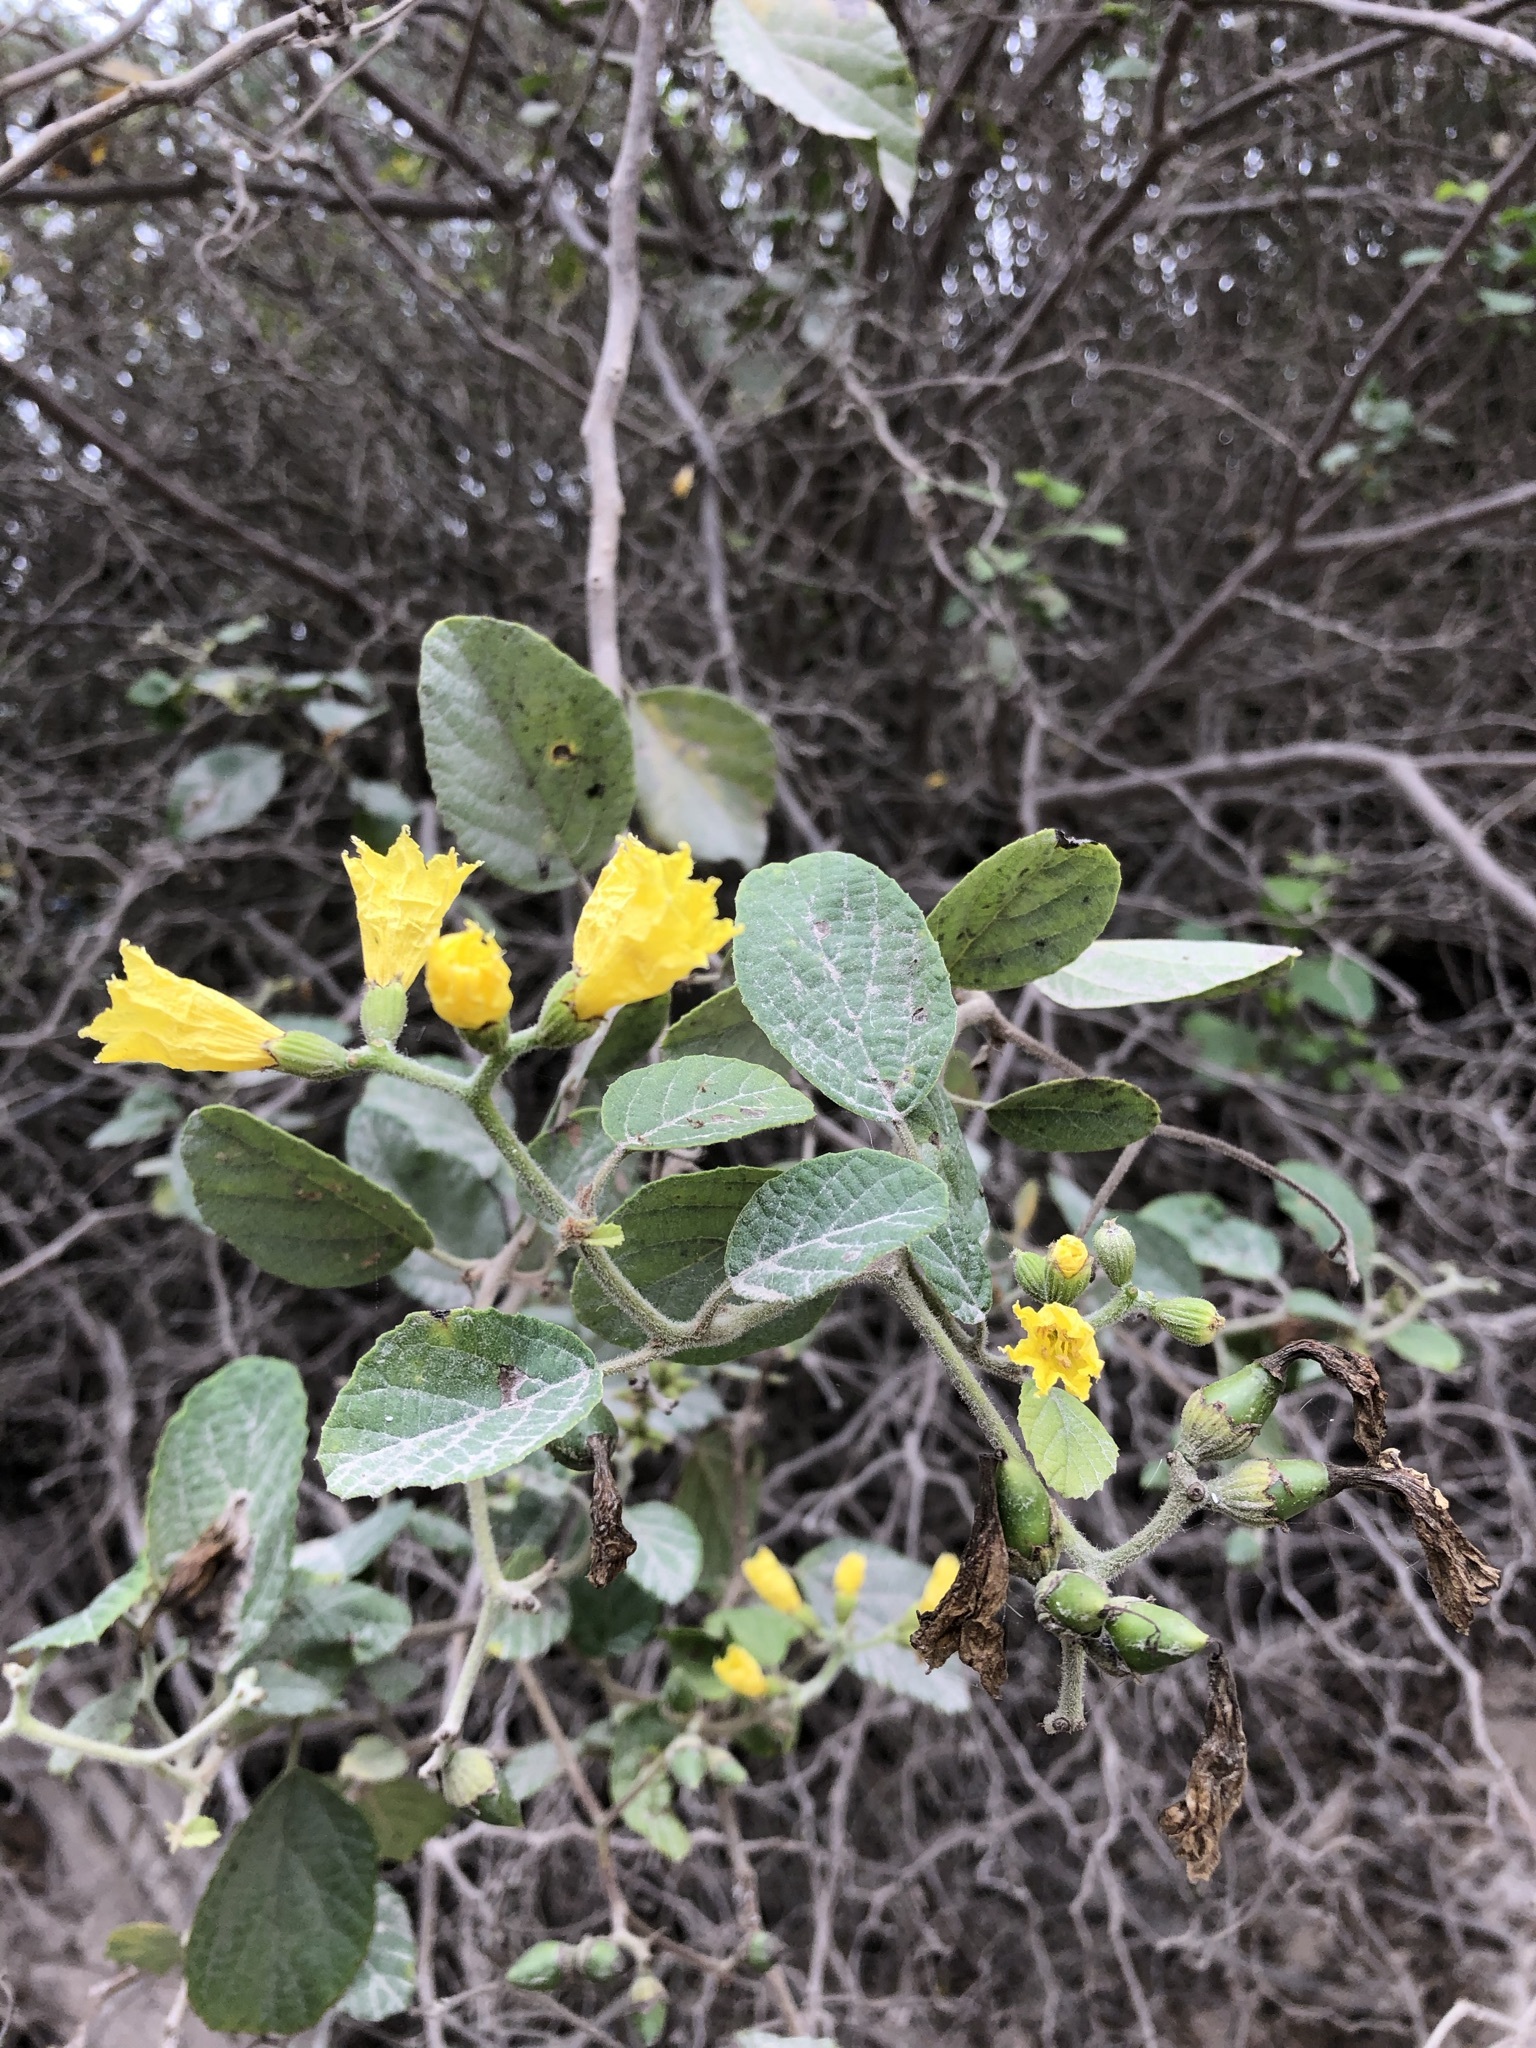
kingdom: Plantae
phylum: Tracheophyta
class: Magnoliopsida
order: Boraginales
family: Cordiaceae
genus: Cordia
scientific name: Cordia lutea
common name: Yellow geiger
